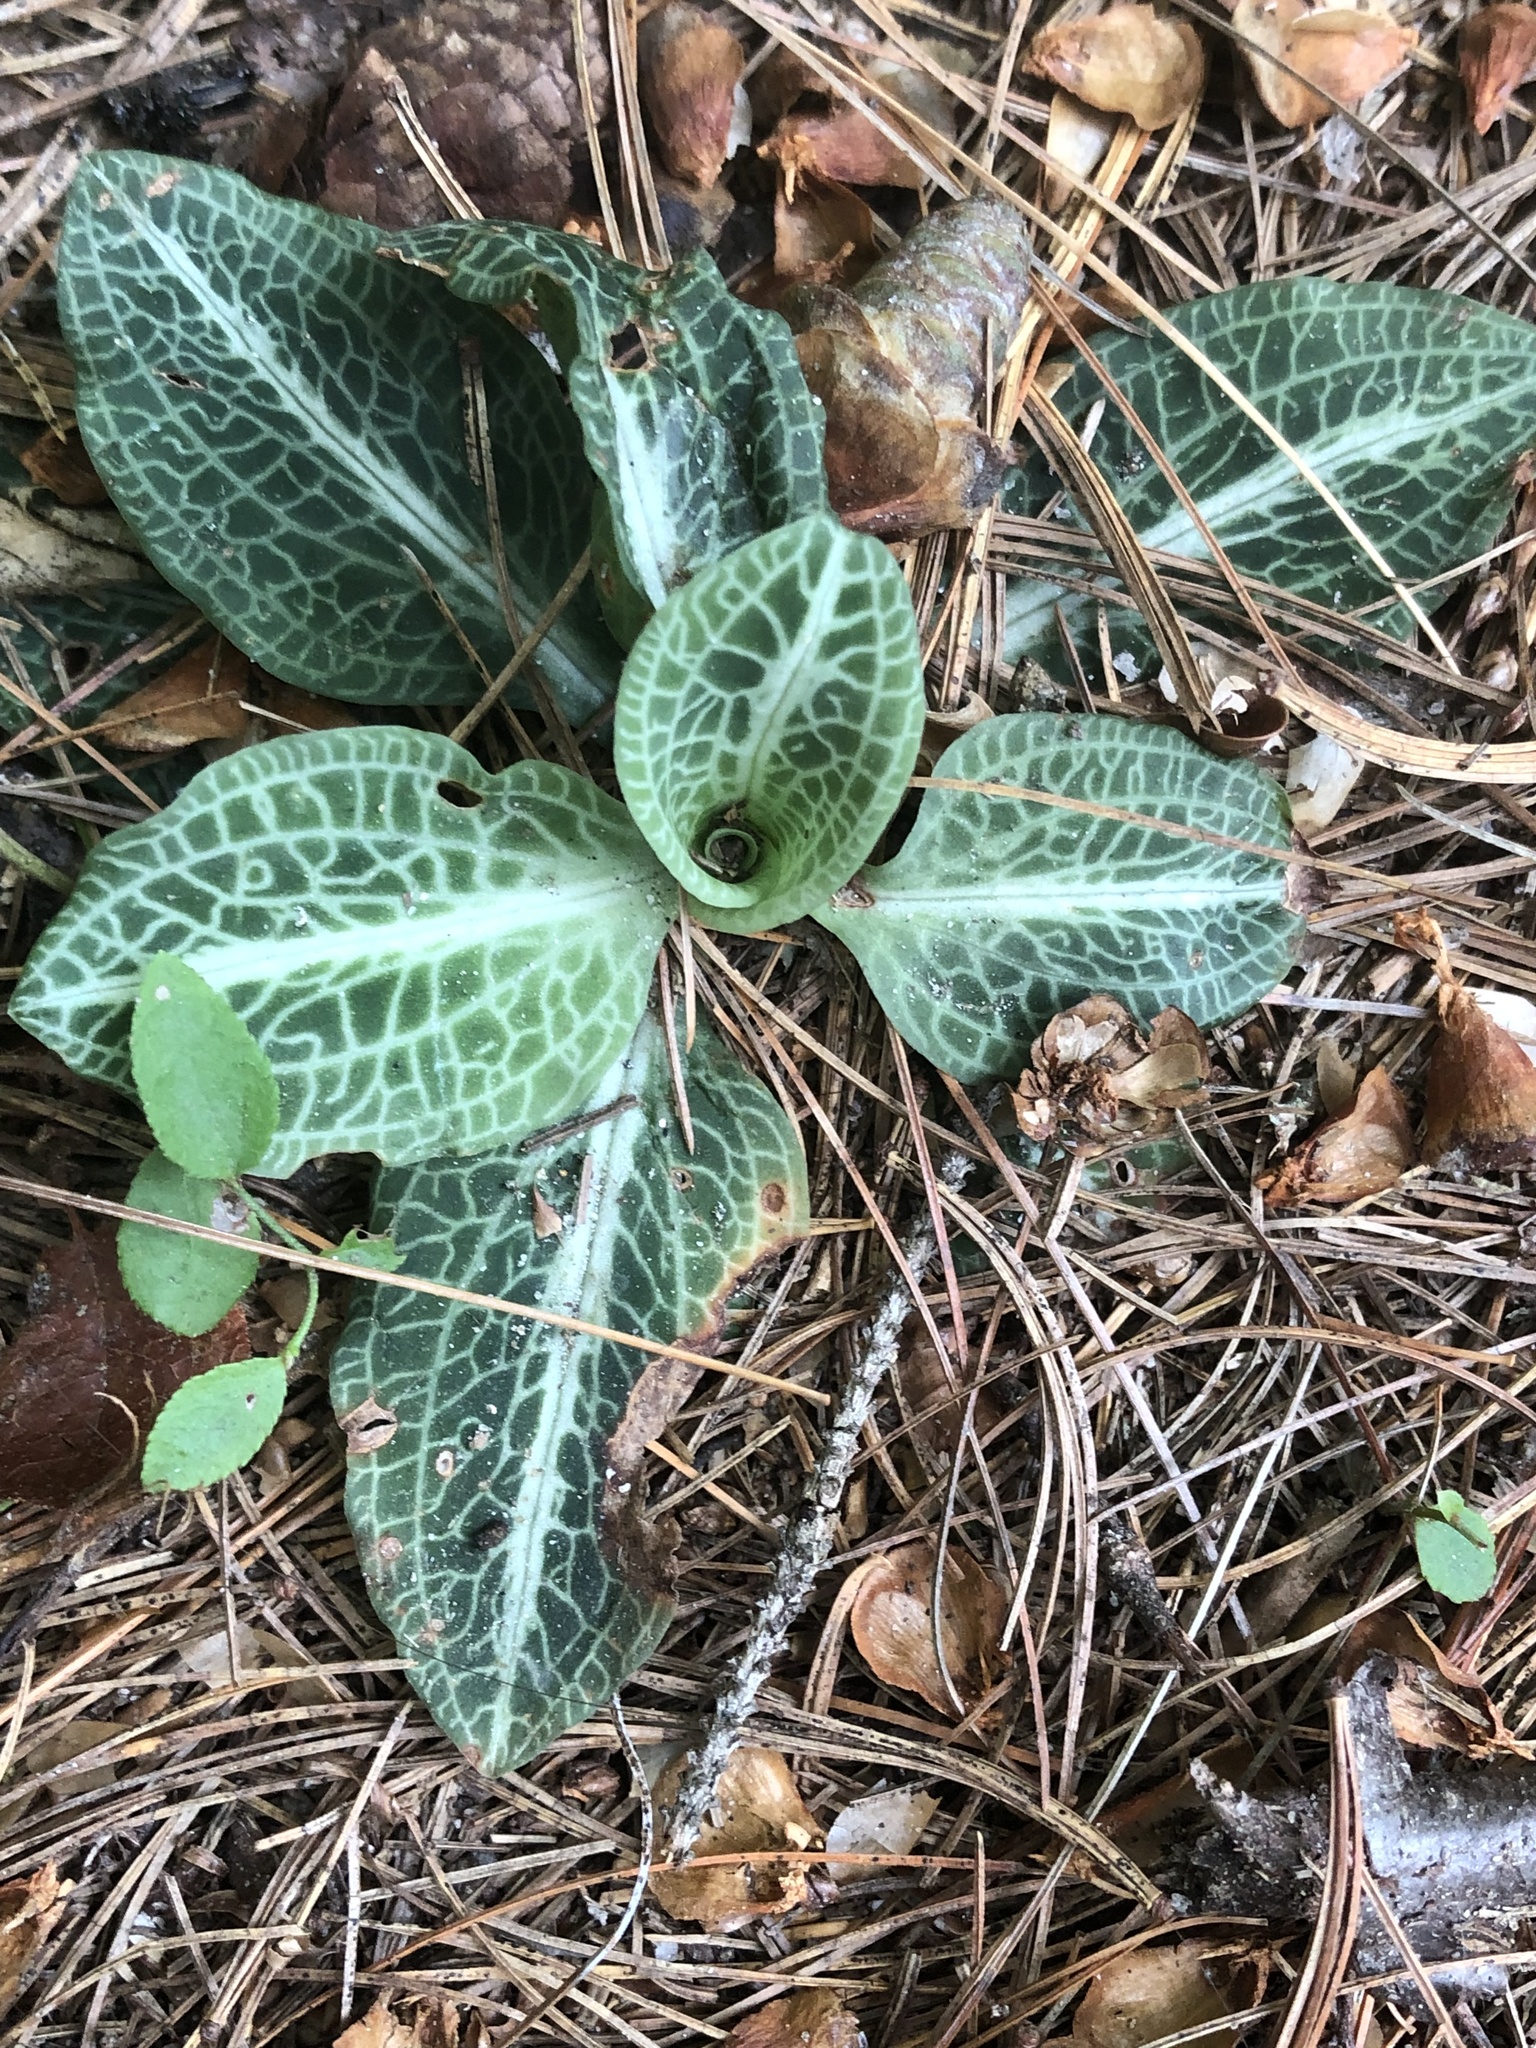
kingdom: Plantae
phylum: Tracheophyta
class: Liliopsida
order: Asparagales
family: Orchidaceae
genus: Goodyera
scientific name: Goodyera pubescens
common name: Downy rattlesnake-plantain
